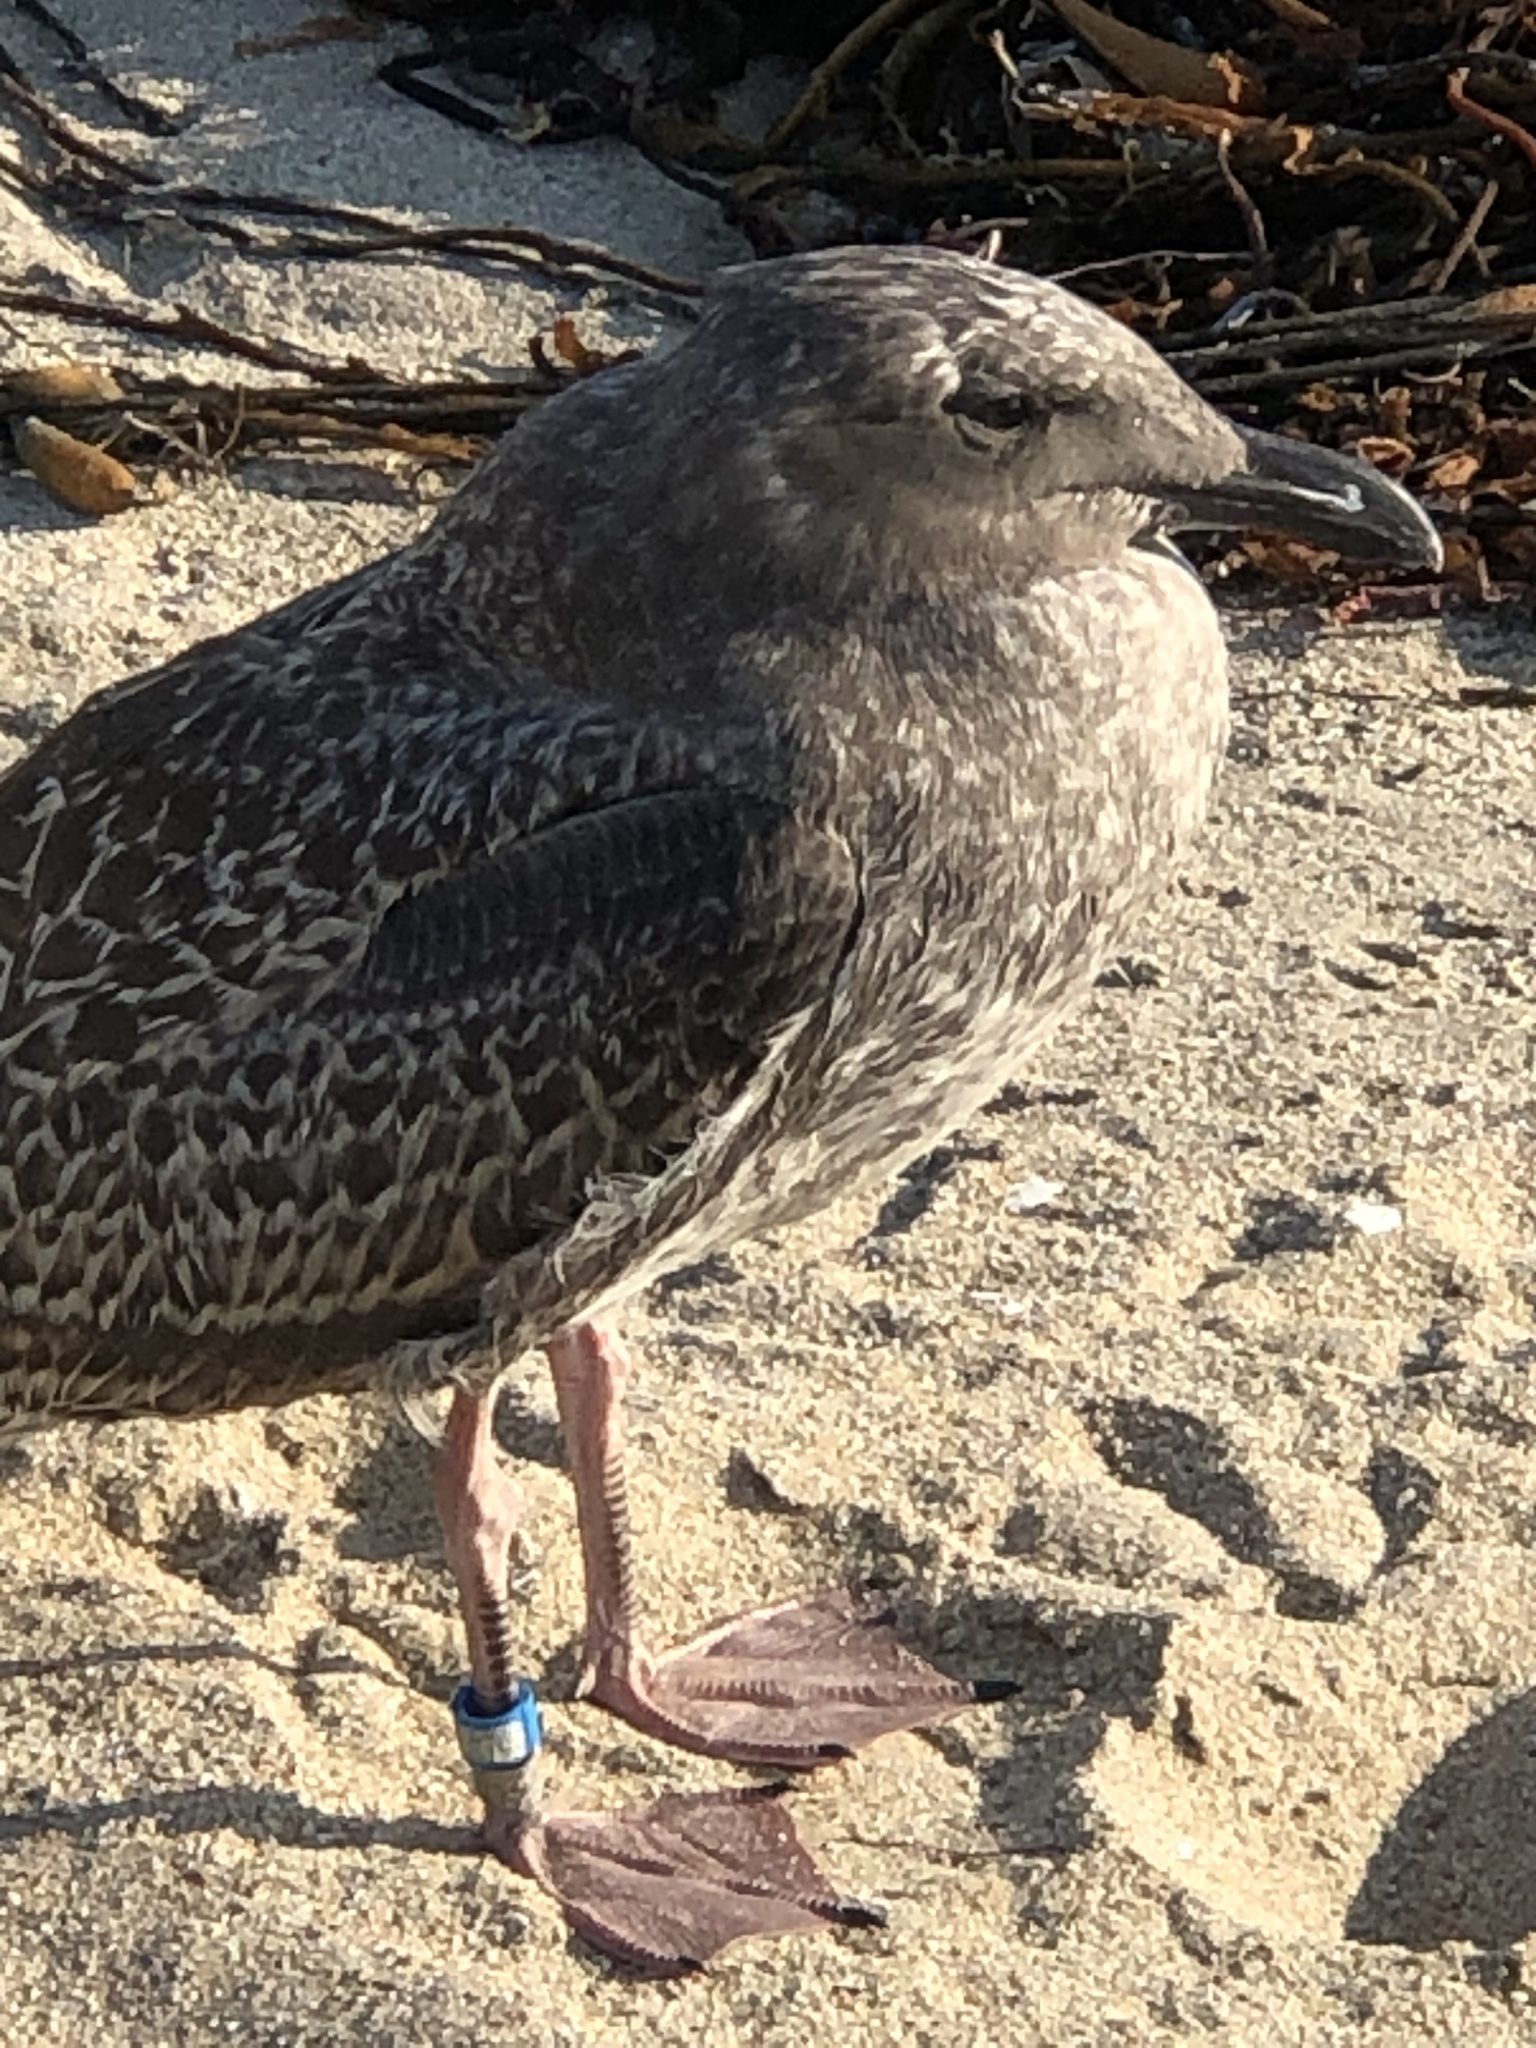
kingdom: Animalia
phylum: Chordata
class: Aves
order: Charadriiformes
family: Laridae
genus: Larus
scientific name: Larus occidentalis
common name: Western gull
